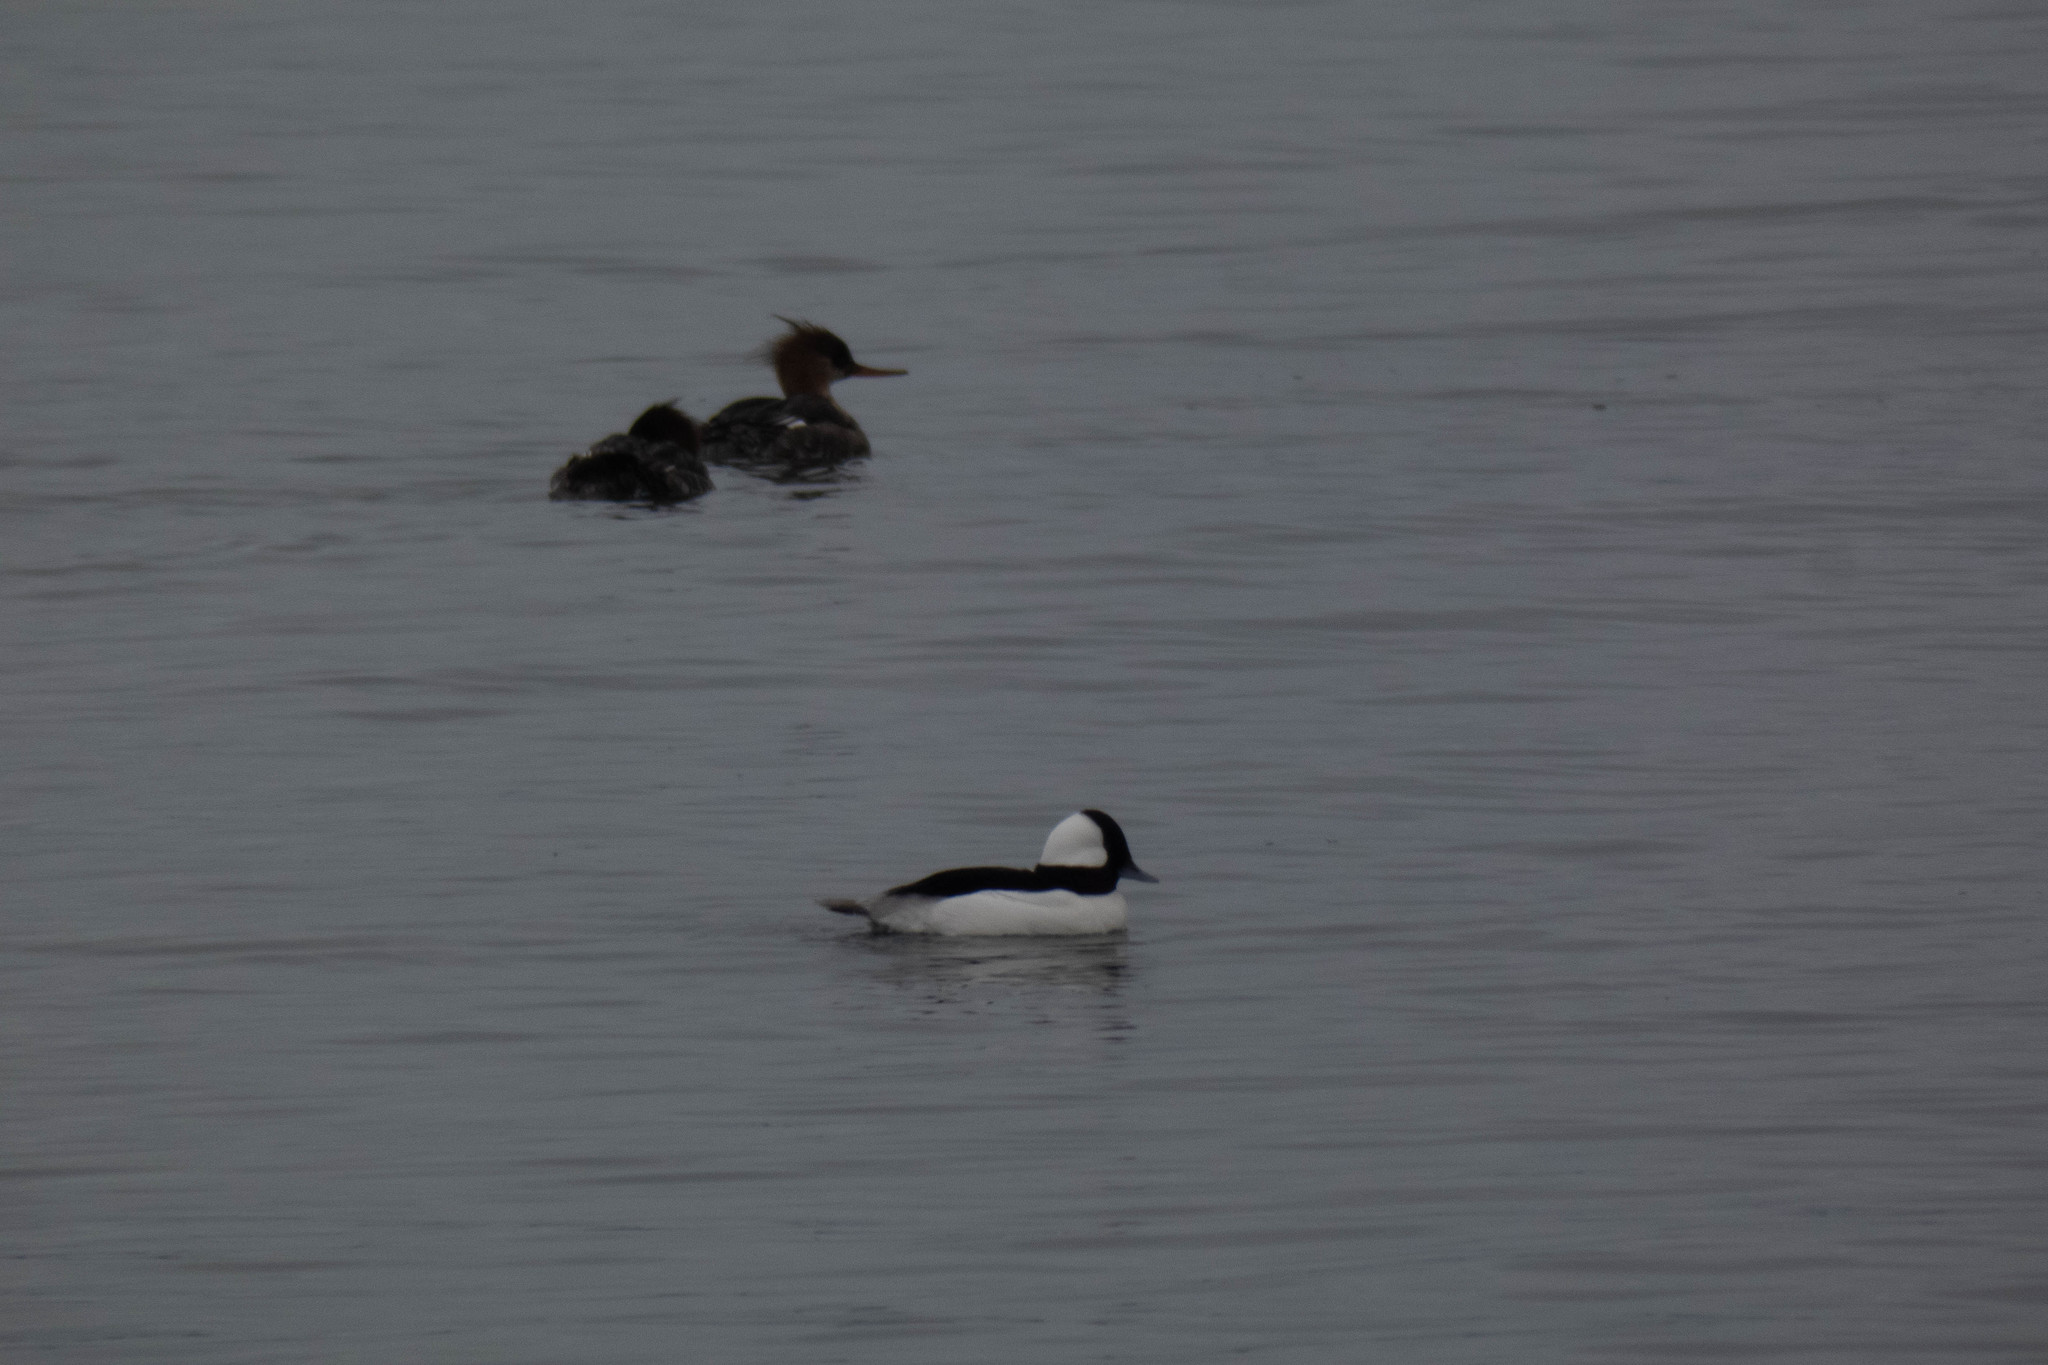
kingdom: Animalia
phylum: Chordata
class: Aves
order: Anseriformes
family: Anatidae
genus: Bucephala
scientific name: Bucephala albeola
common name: Bufflehead
